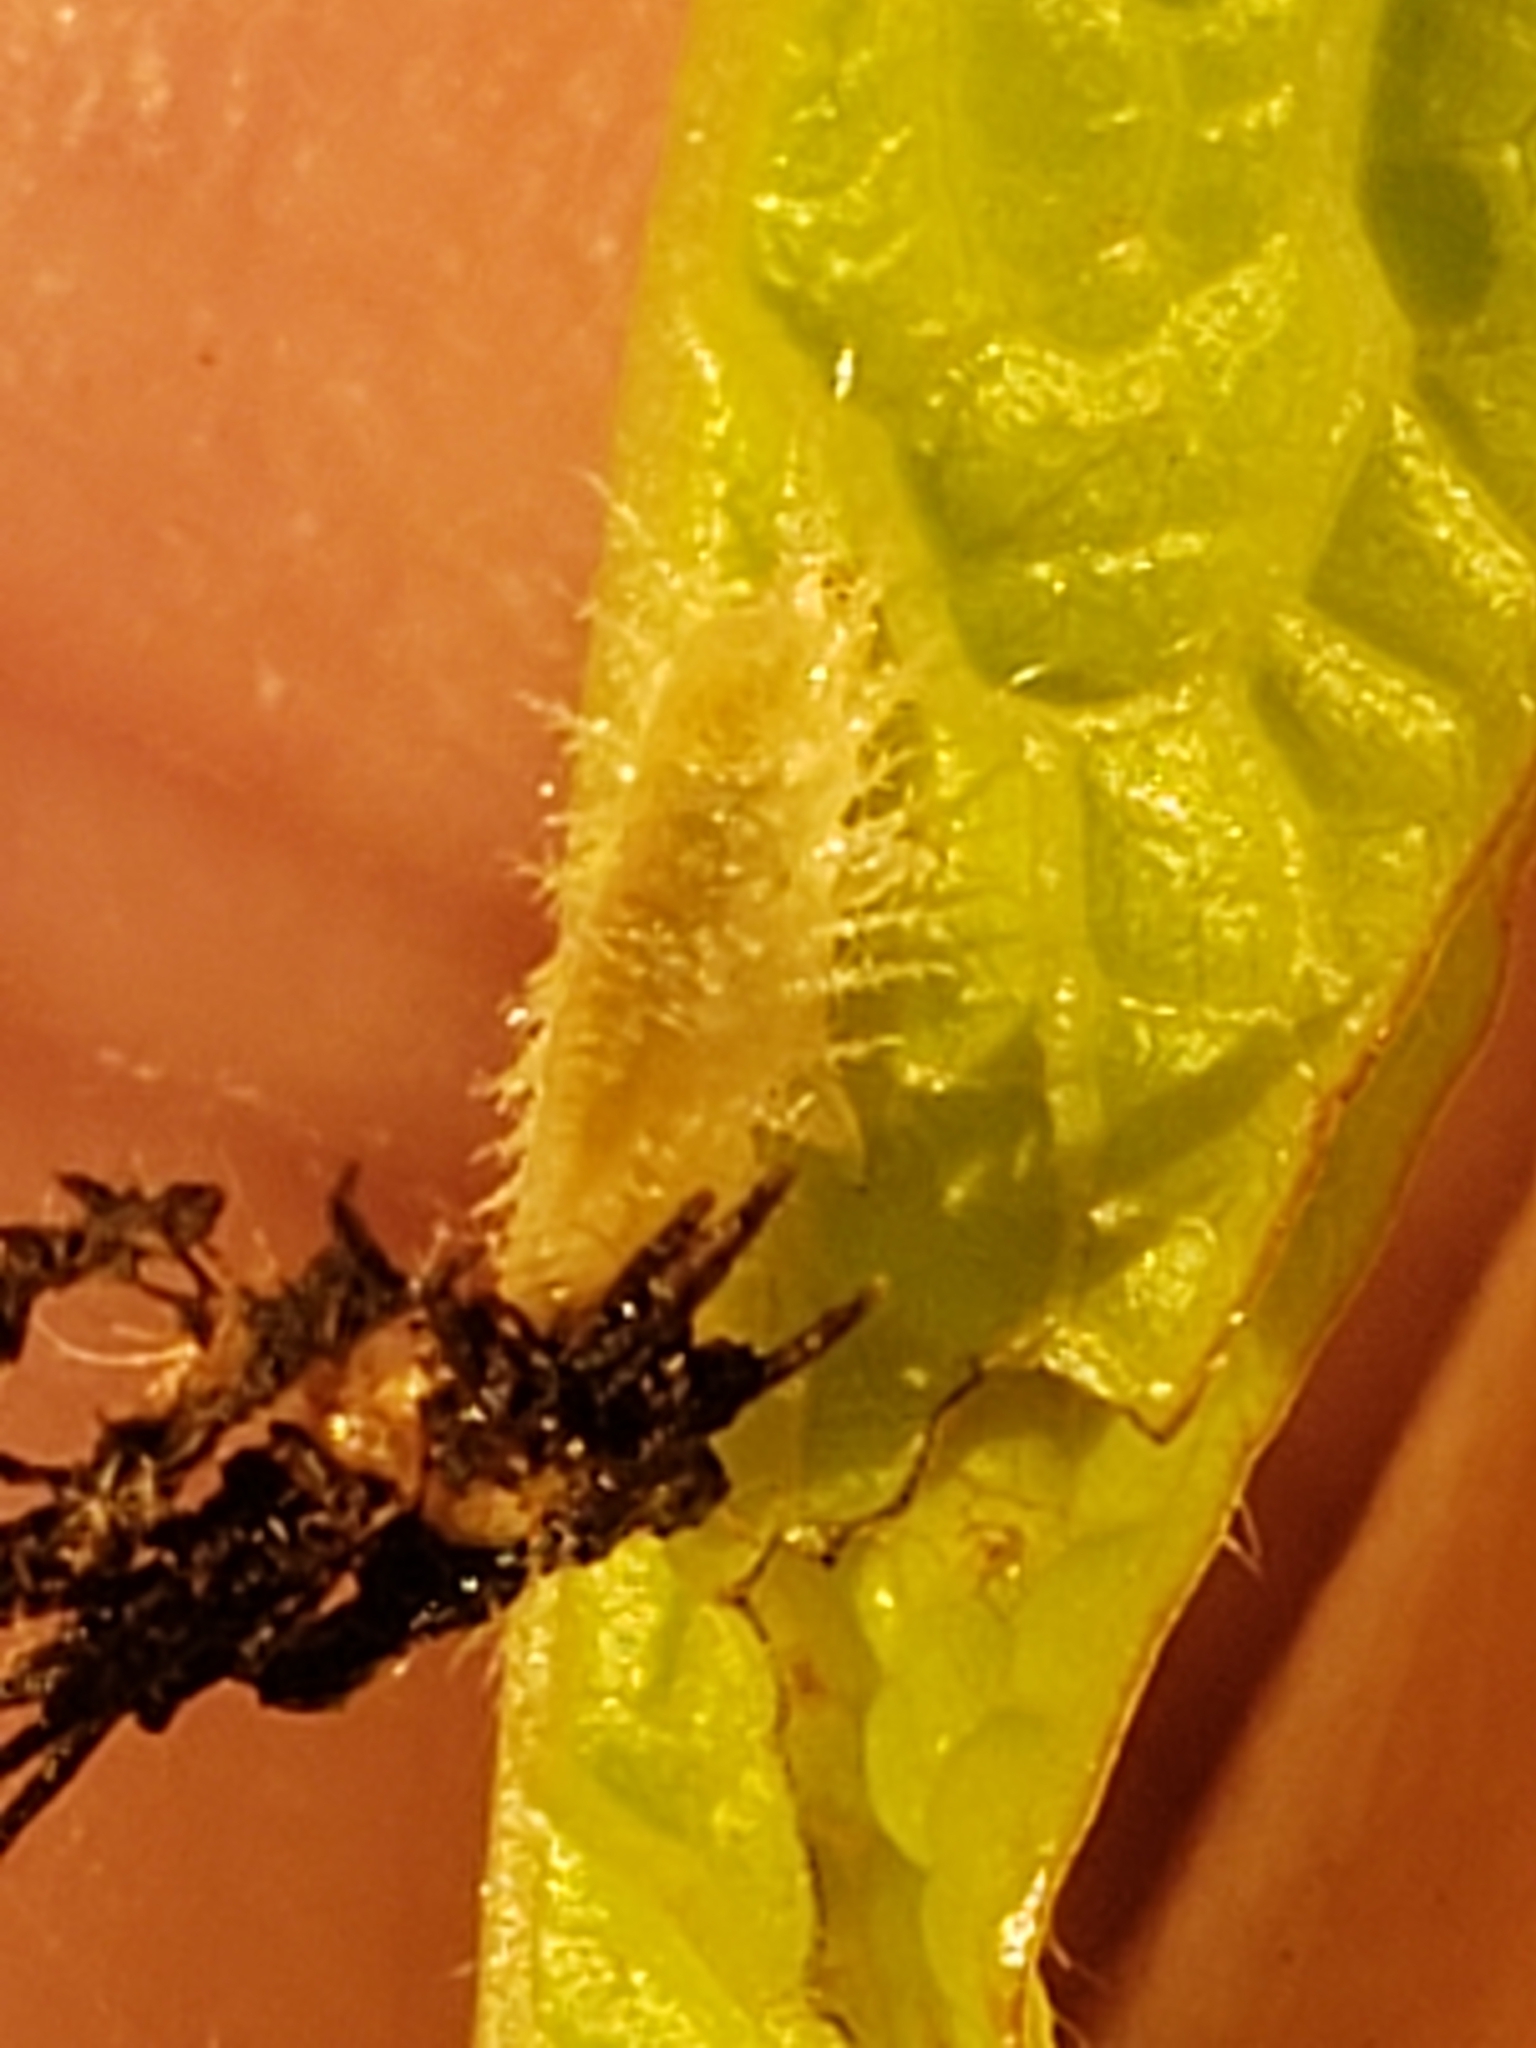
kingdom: Animalia
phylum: Arthropoda
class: Insecta
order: Coleoptera
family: Chrysomelidae
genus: Deloyala
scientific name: Deloyala guttata
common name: Mottled tortoise beetle
